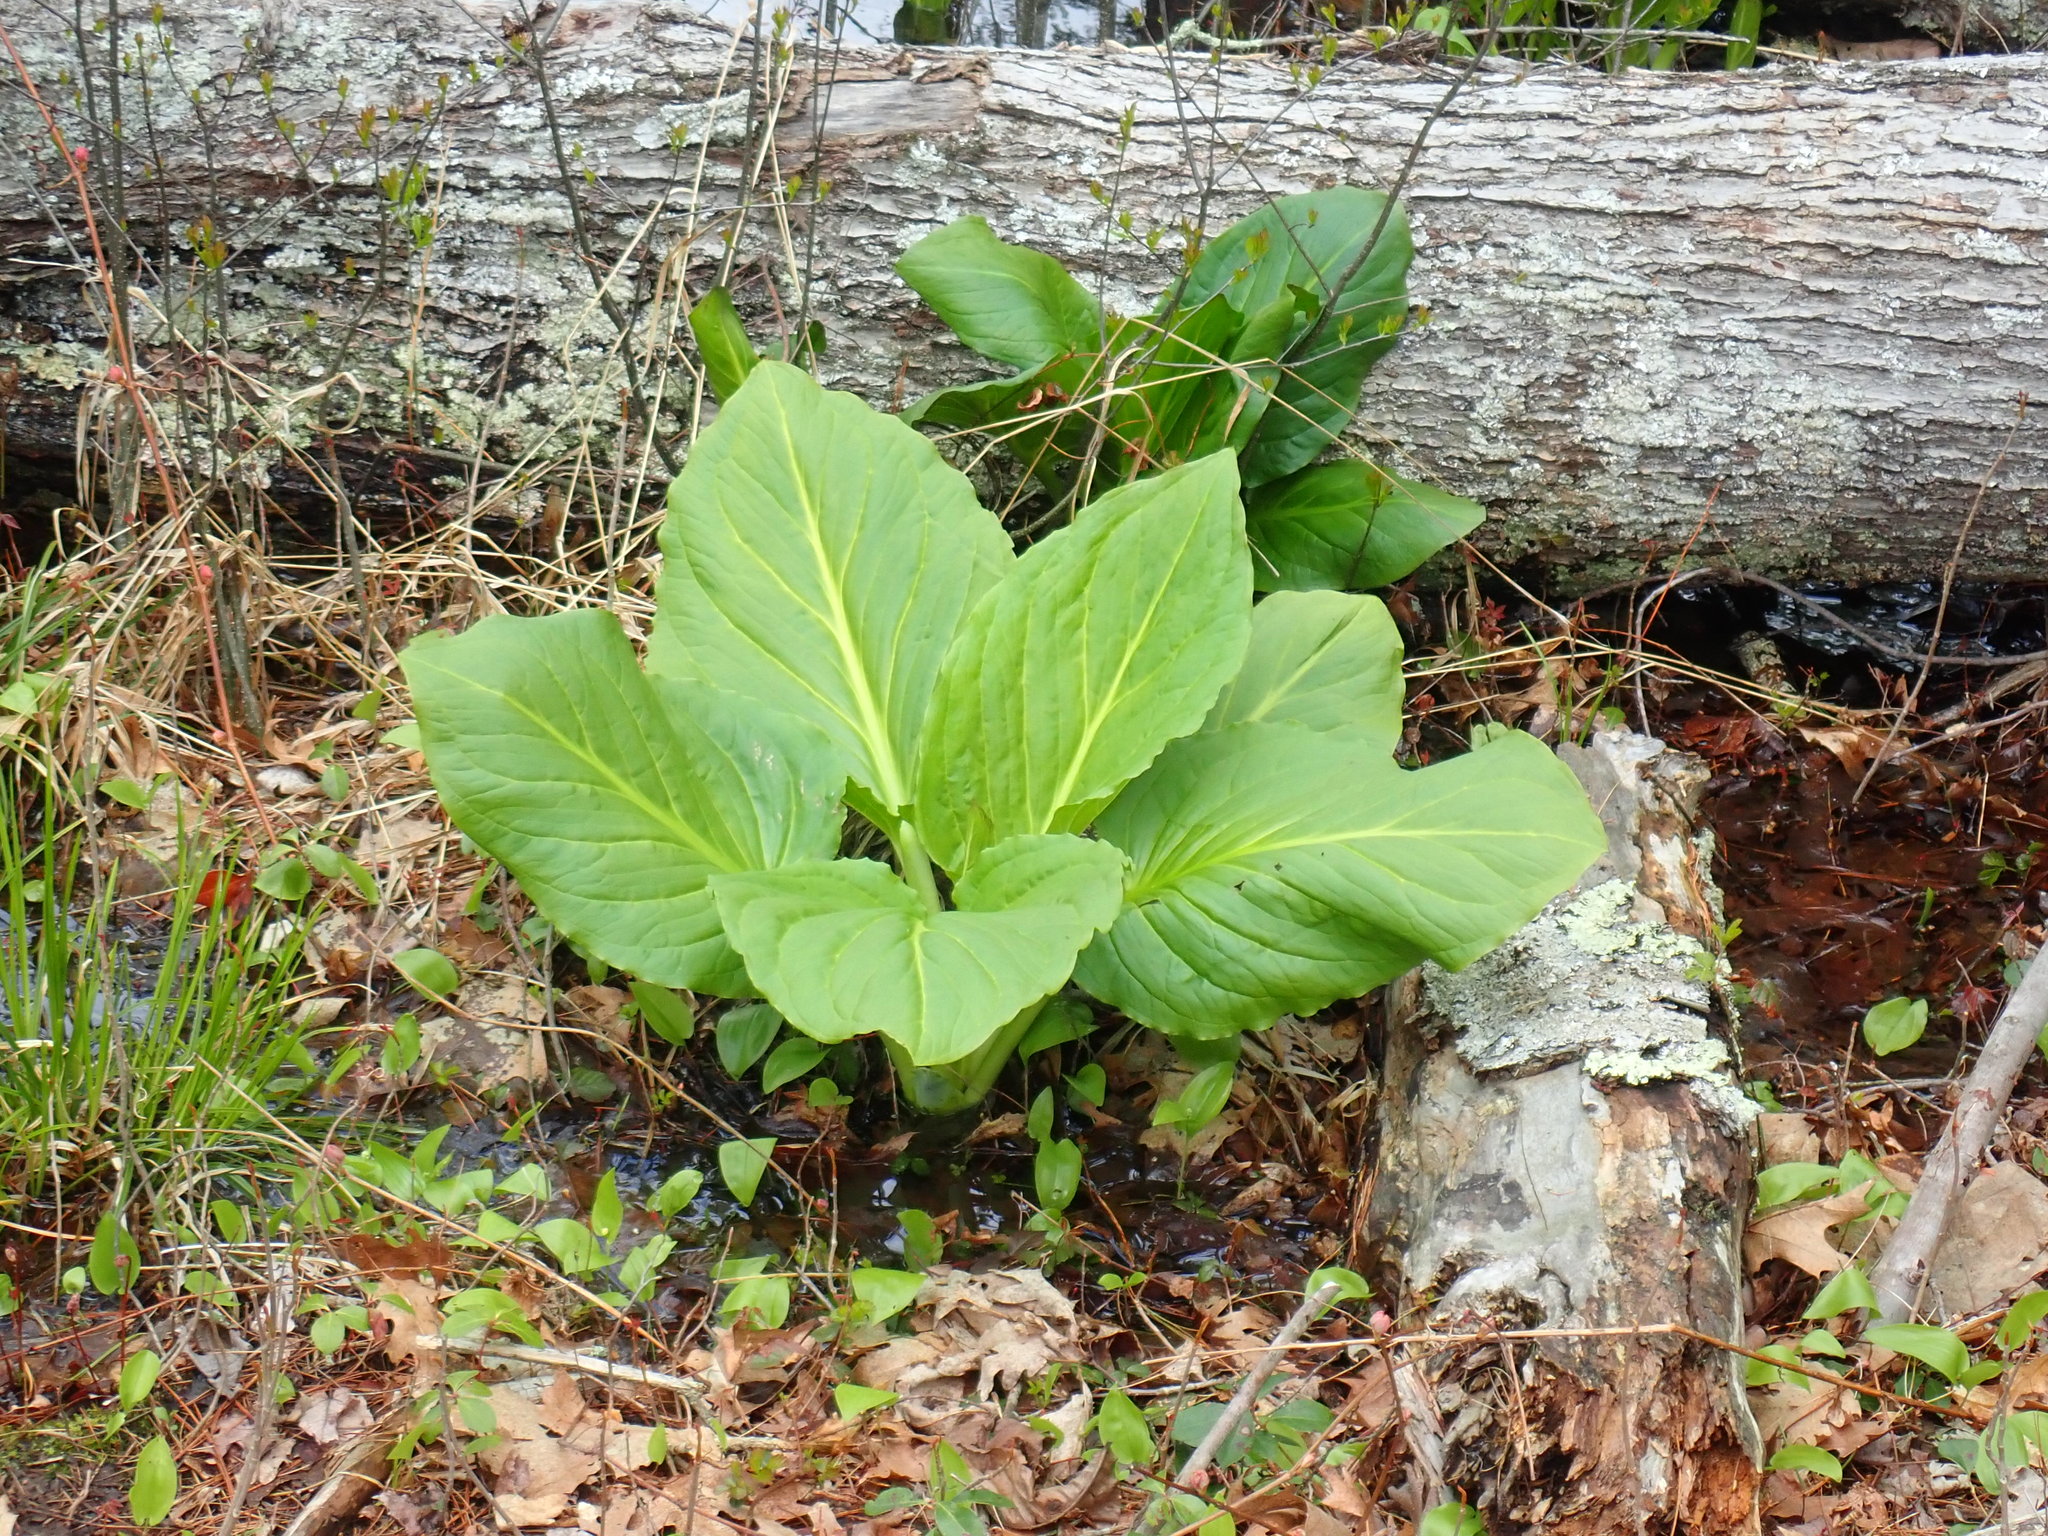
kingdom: Plantae
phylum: Tracheophyta
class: Liliopsida
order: Alismatales
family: Araceae
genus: Symplocarpus
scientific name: Symplocarpus foetidus
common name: Eastern skunk cabbage
